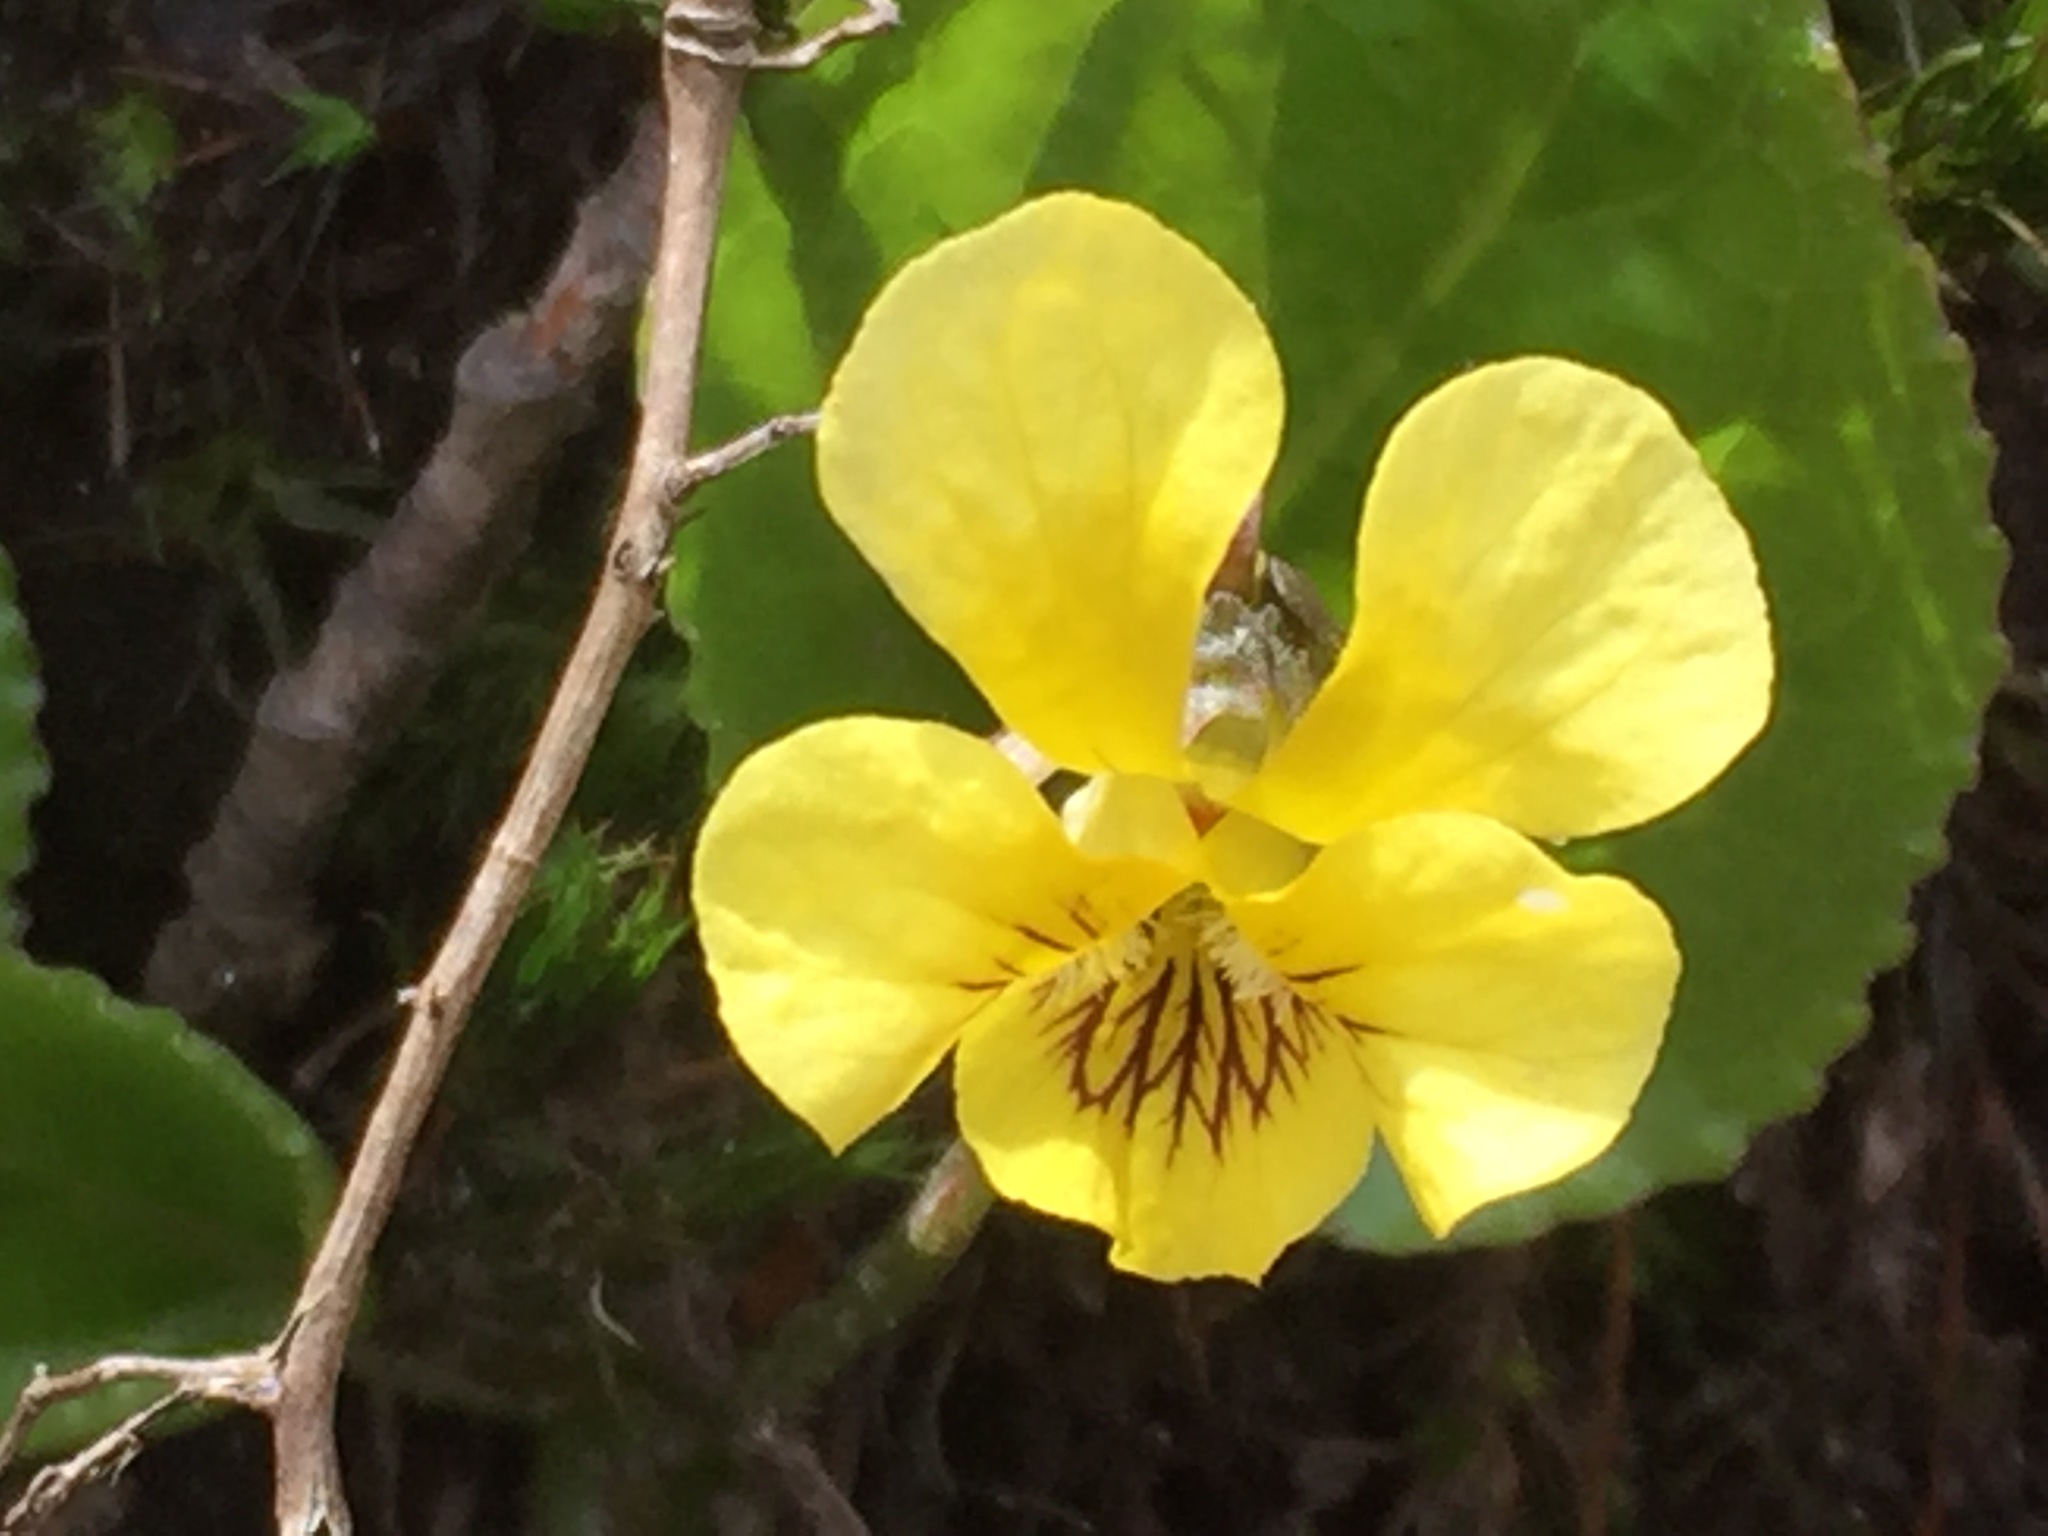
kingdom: Plantae
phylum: Tracheophyta
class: Magnoliopsida
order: Malpighiales
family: Violaceae
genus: Viola
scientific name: Viola rotundifolia
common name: Early yellow violet
